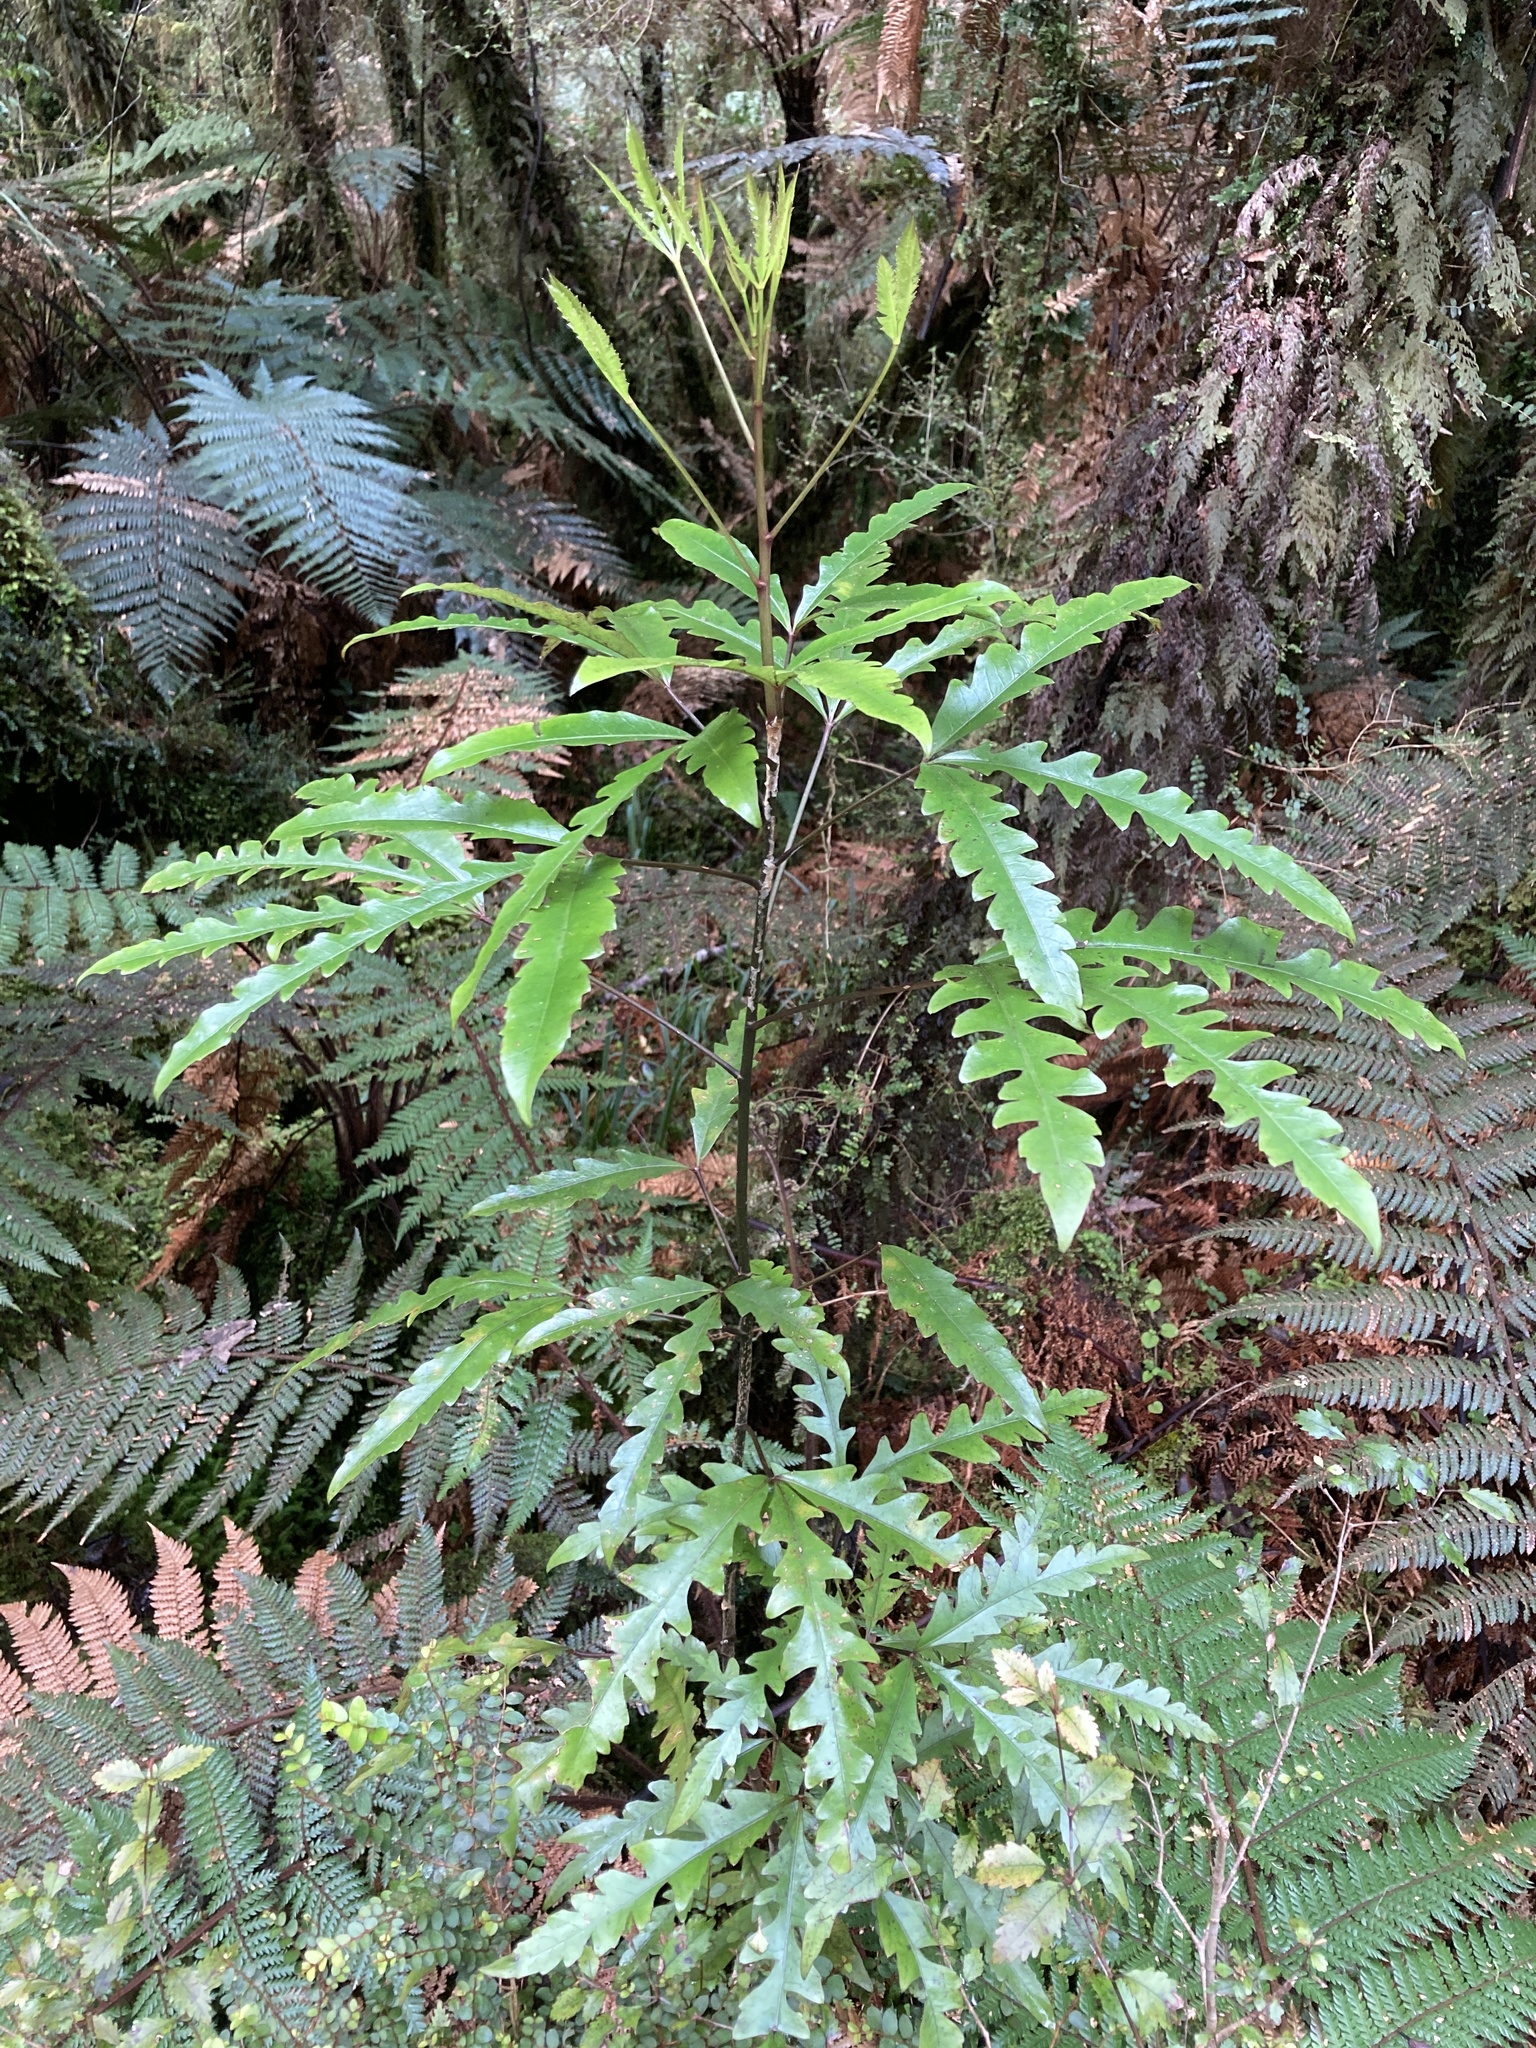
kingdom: Plantae
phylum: Tracheophyta
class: Magnoliopsida
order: Apiales
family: Araliaceae
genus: Raukaua
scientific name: Raukaua edgerleyi
